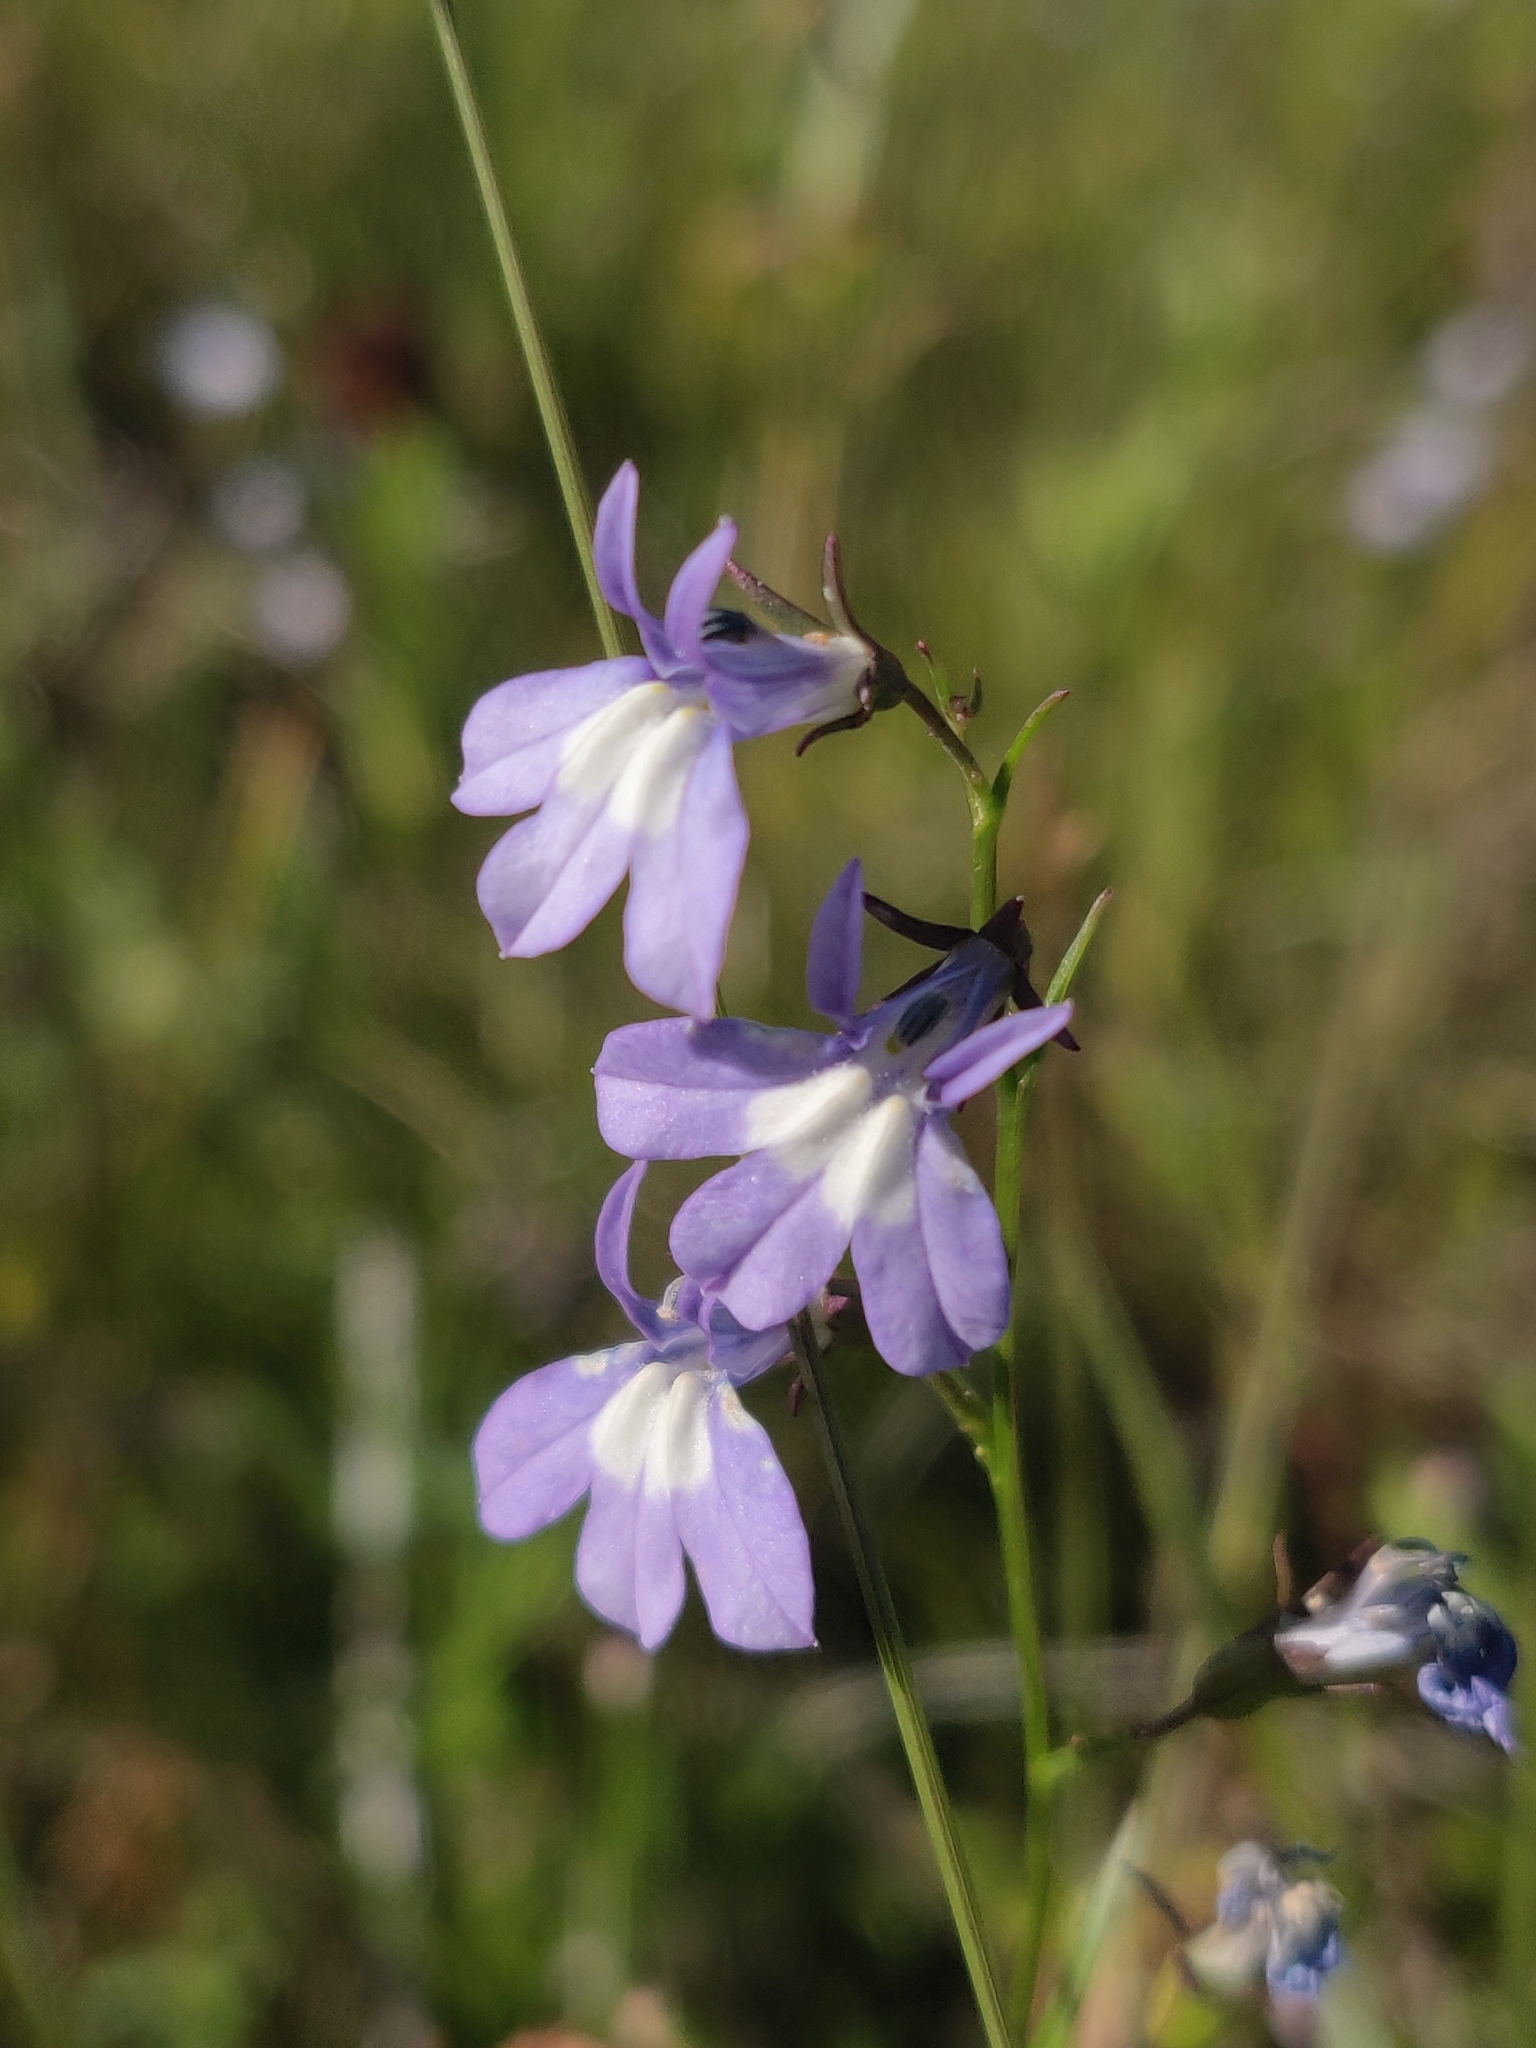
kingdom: Plantae
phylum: Tracheophyta
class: Magnoliopsida
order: Asterales
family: Campanulaceae
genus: Lobelia
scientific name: Lobelia kalmii
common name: Kalm's lobelia
